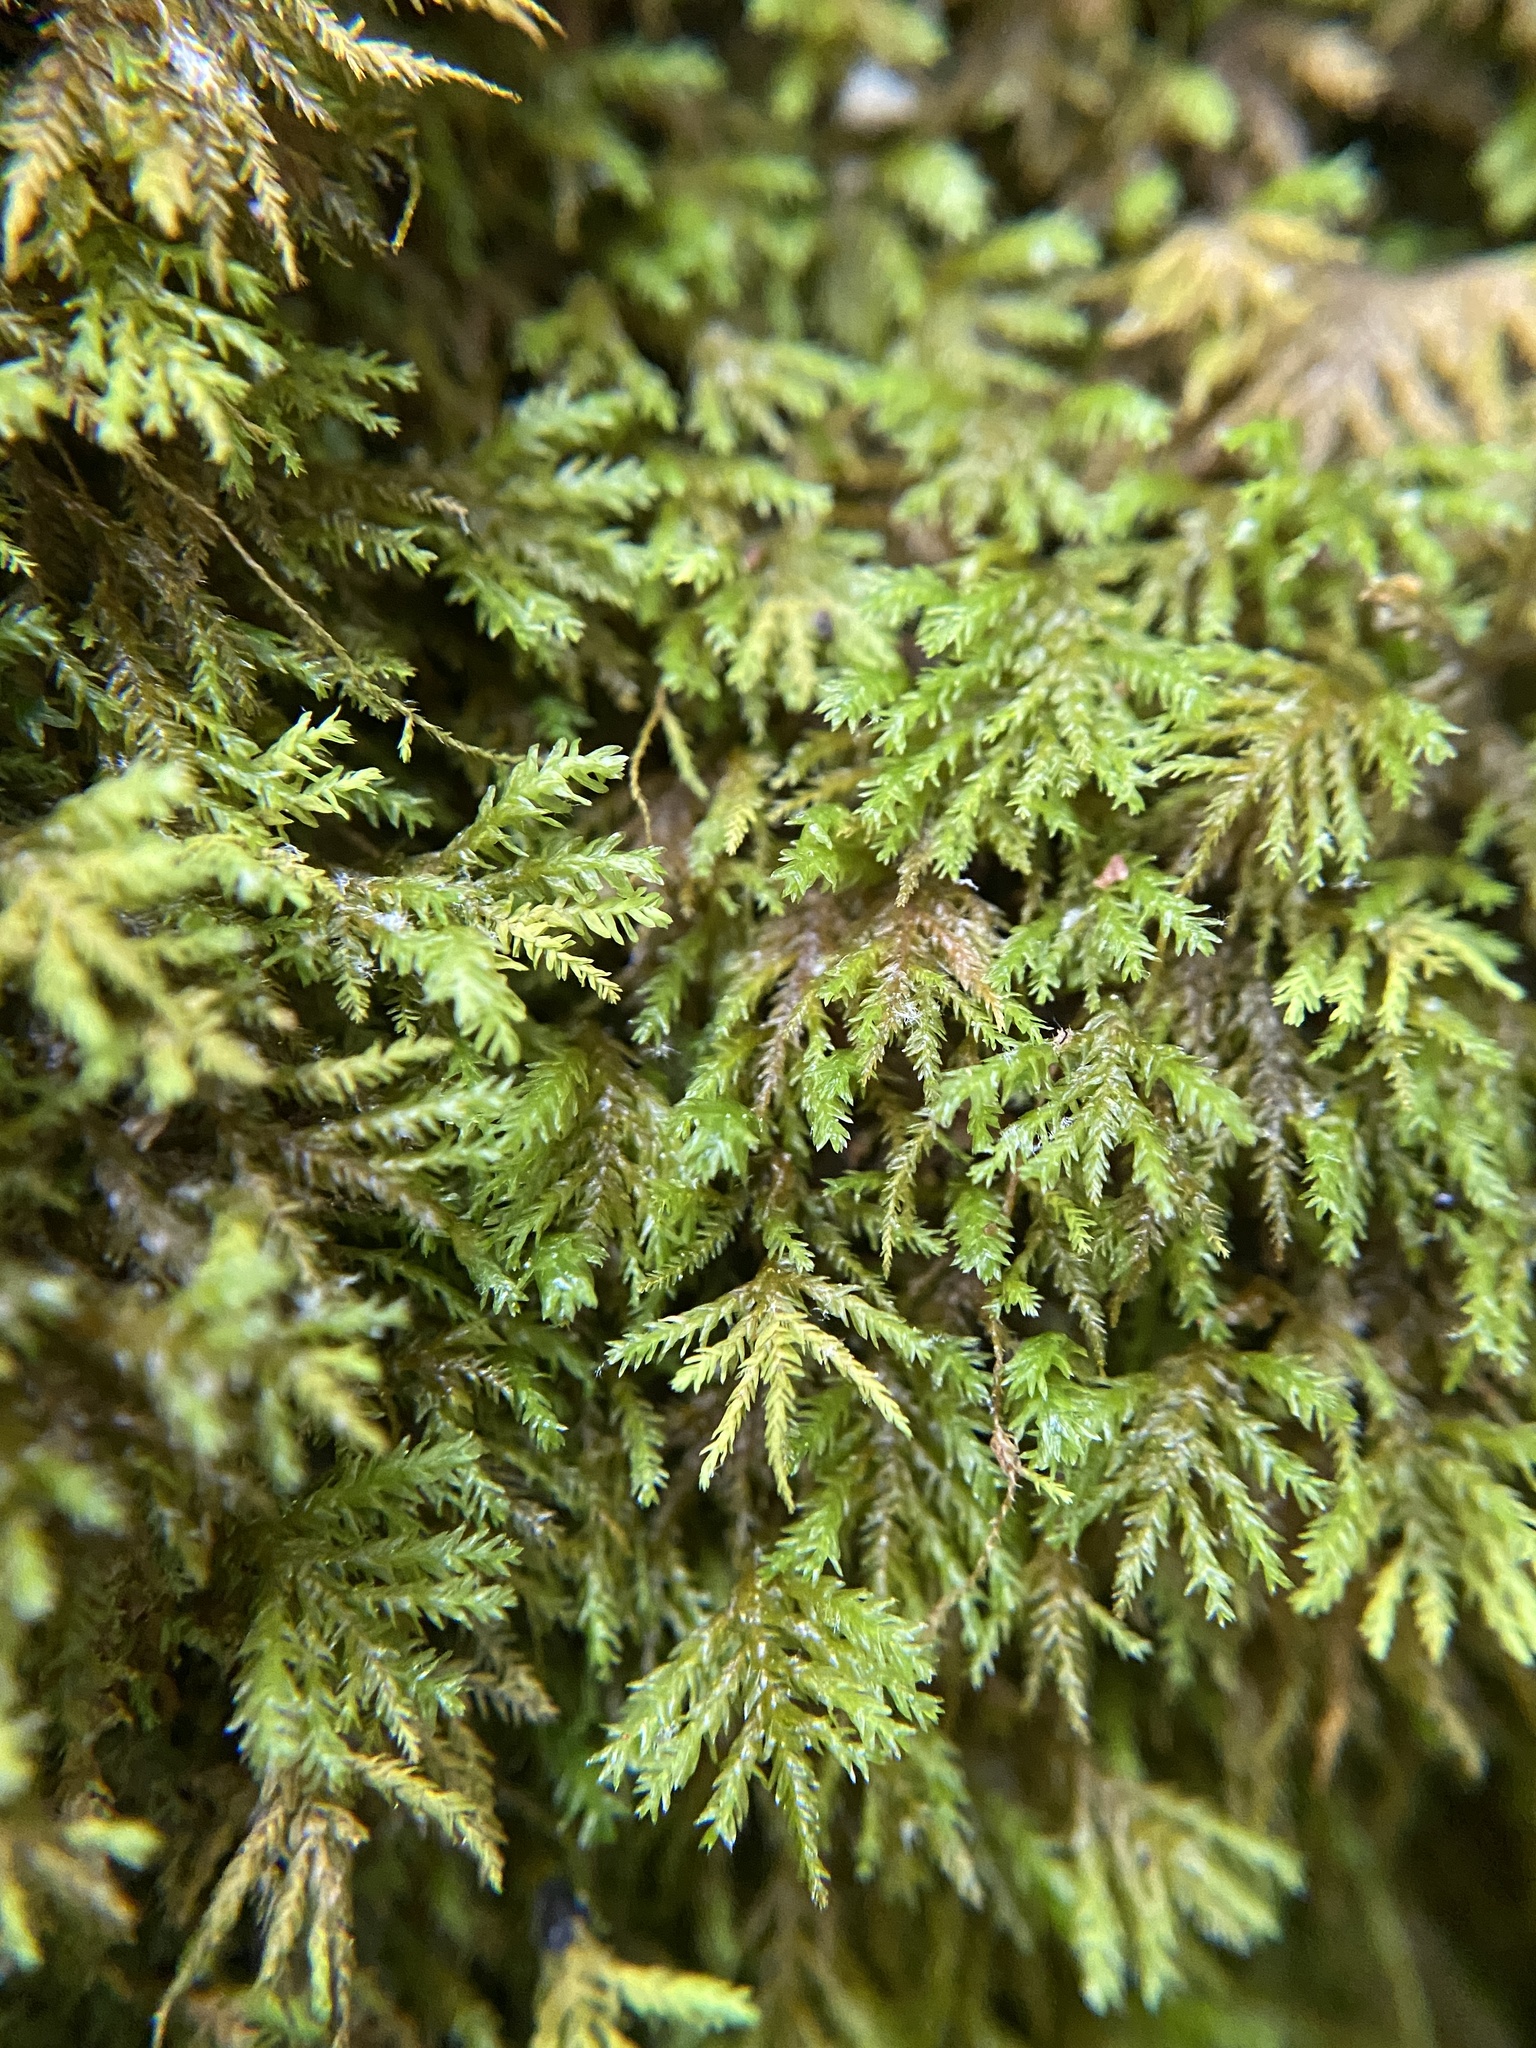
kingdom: Plantae
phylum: Bryophyta
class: Bryopsida
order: Hypnales
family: Neckeraceae
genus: Pseudanomodon
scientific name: Pseudanomodon attenuatus
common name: Tree-skirt moss
